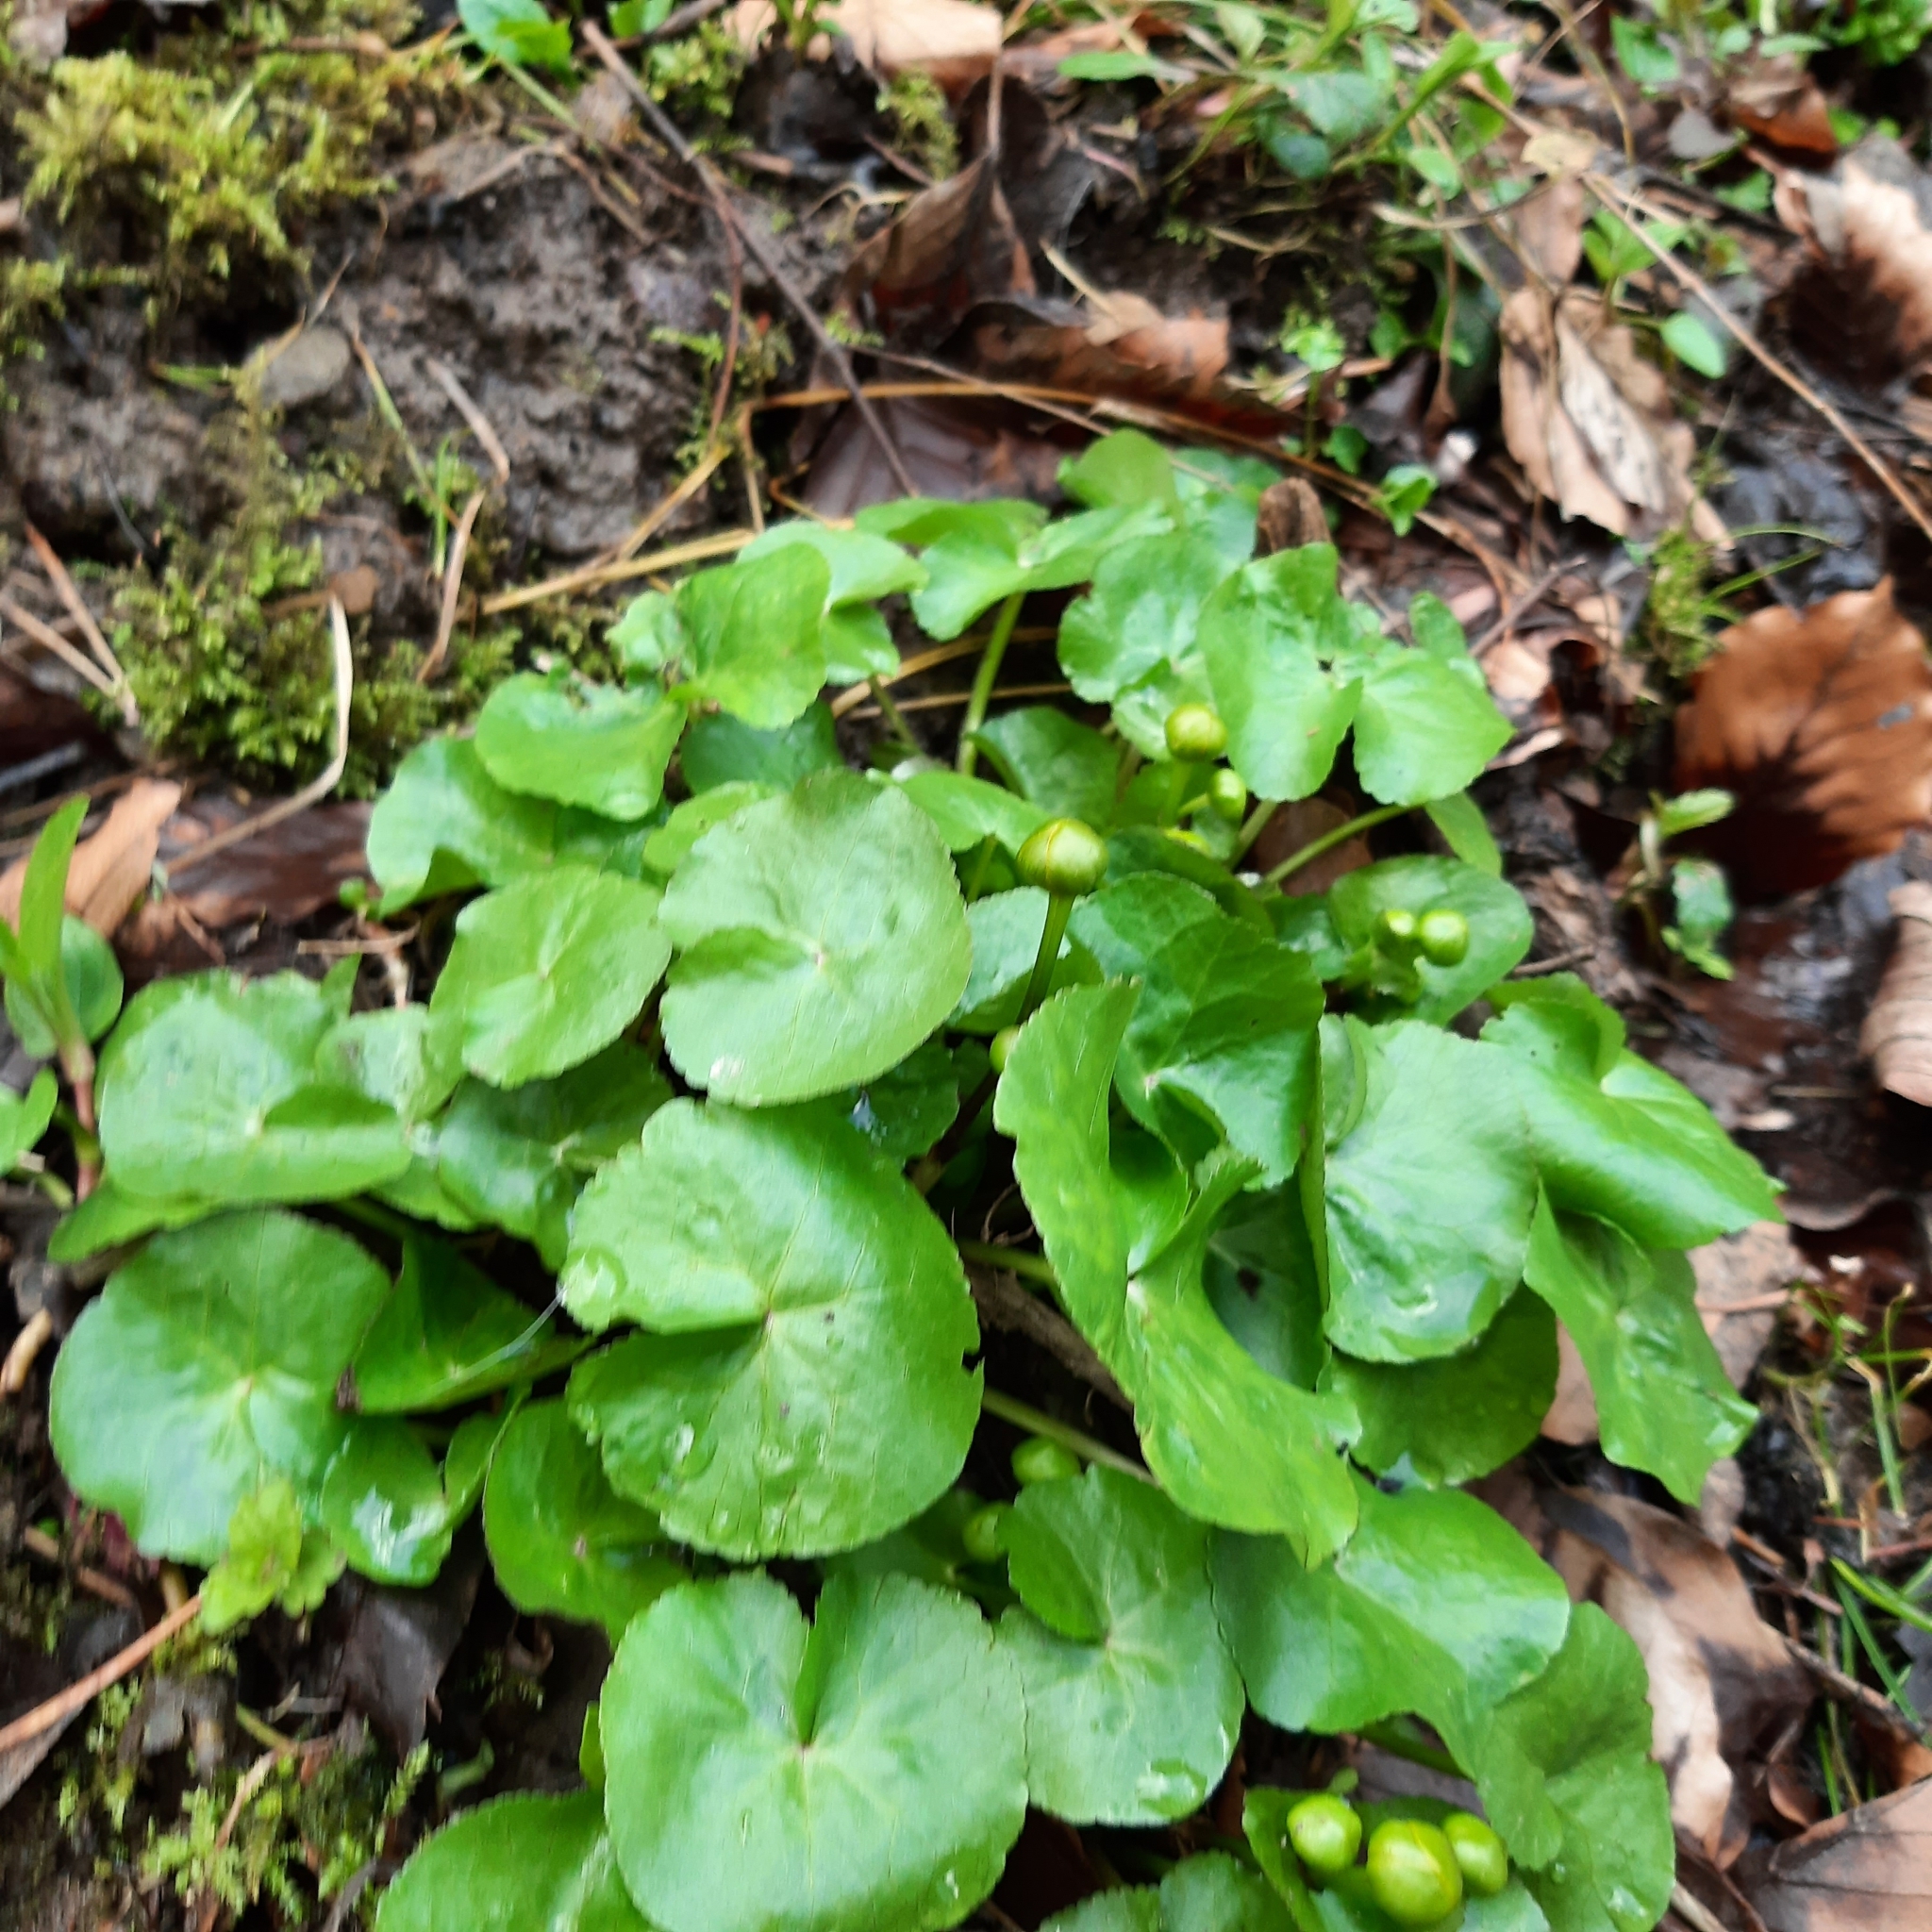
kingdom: Plantae
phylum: Tracheophyta
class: Magnoliopsida
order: Ranunculales
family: Ranunculaceae
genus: Caltha
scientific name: Caltha palustris
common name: Marsh marigold
